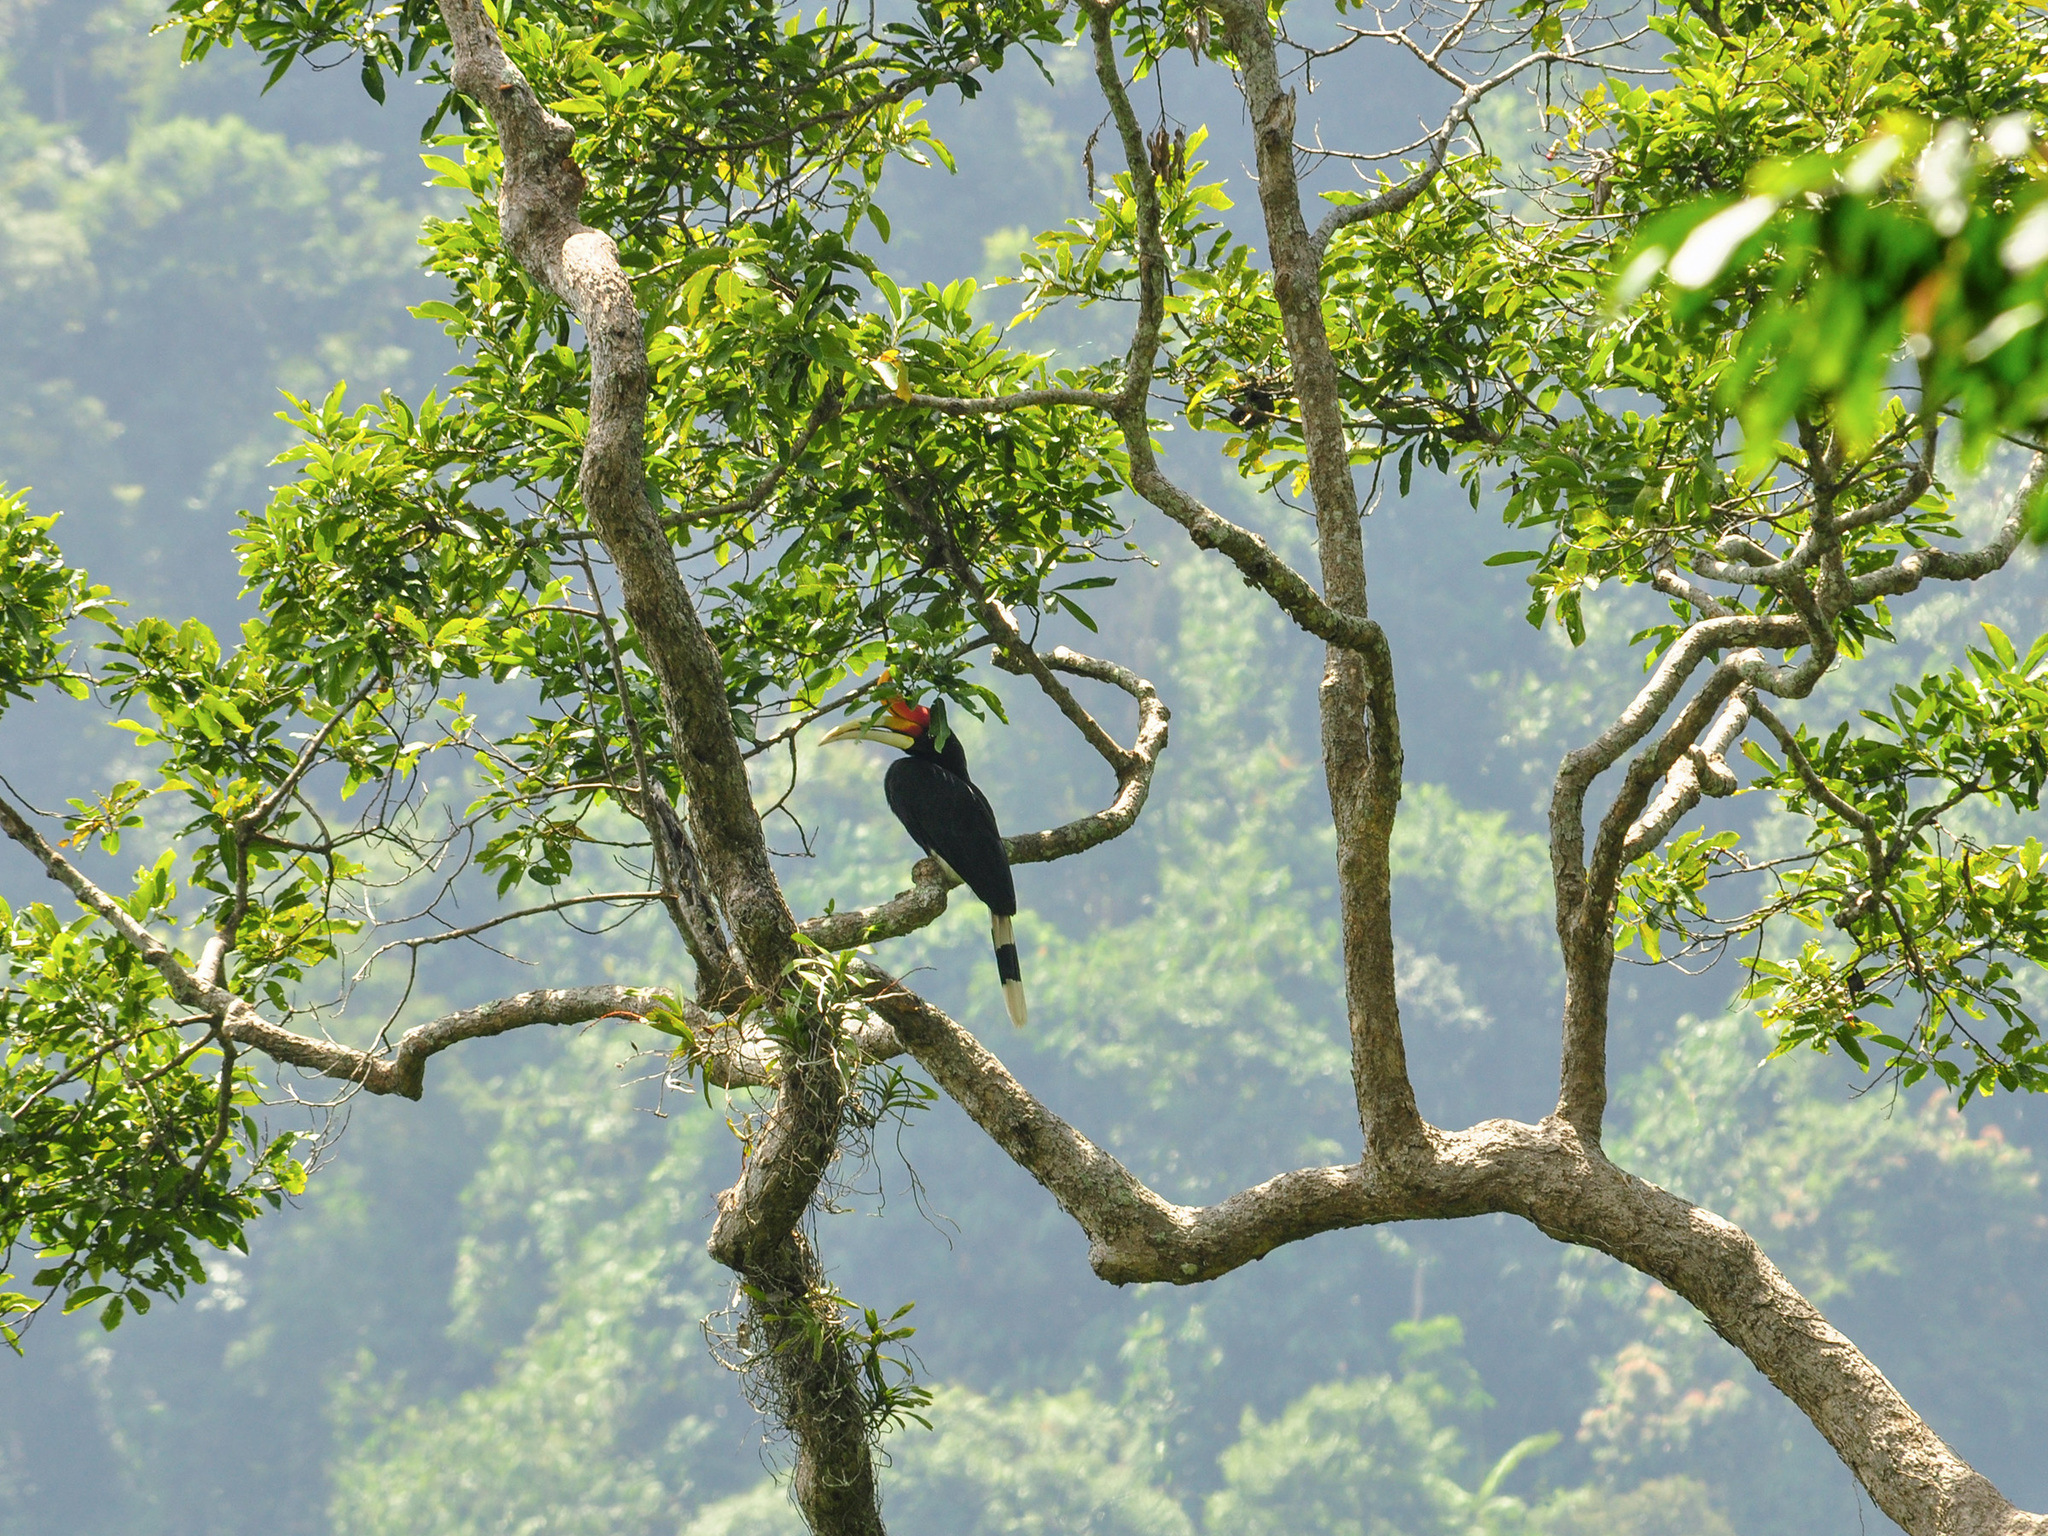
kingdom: Animalia
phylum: Chordata
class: Aves
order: Bucerotiformes
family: Bucerotidae
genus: Buceros
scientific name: Buceros rhinoceros
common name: Rhinoceros hornbill
